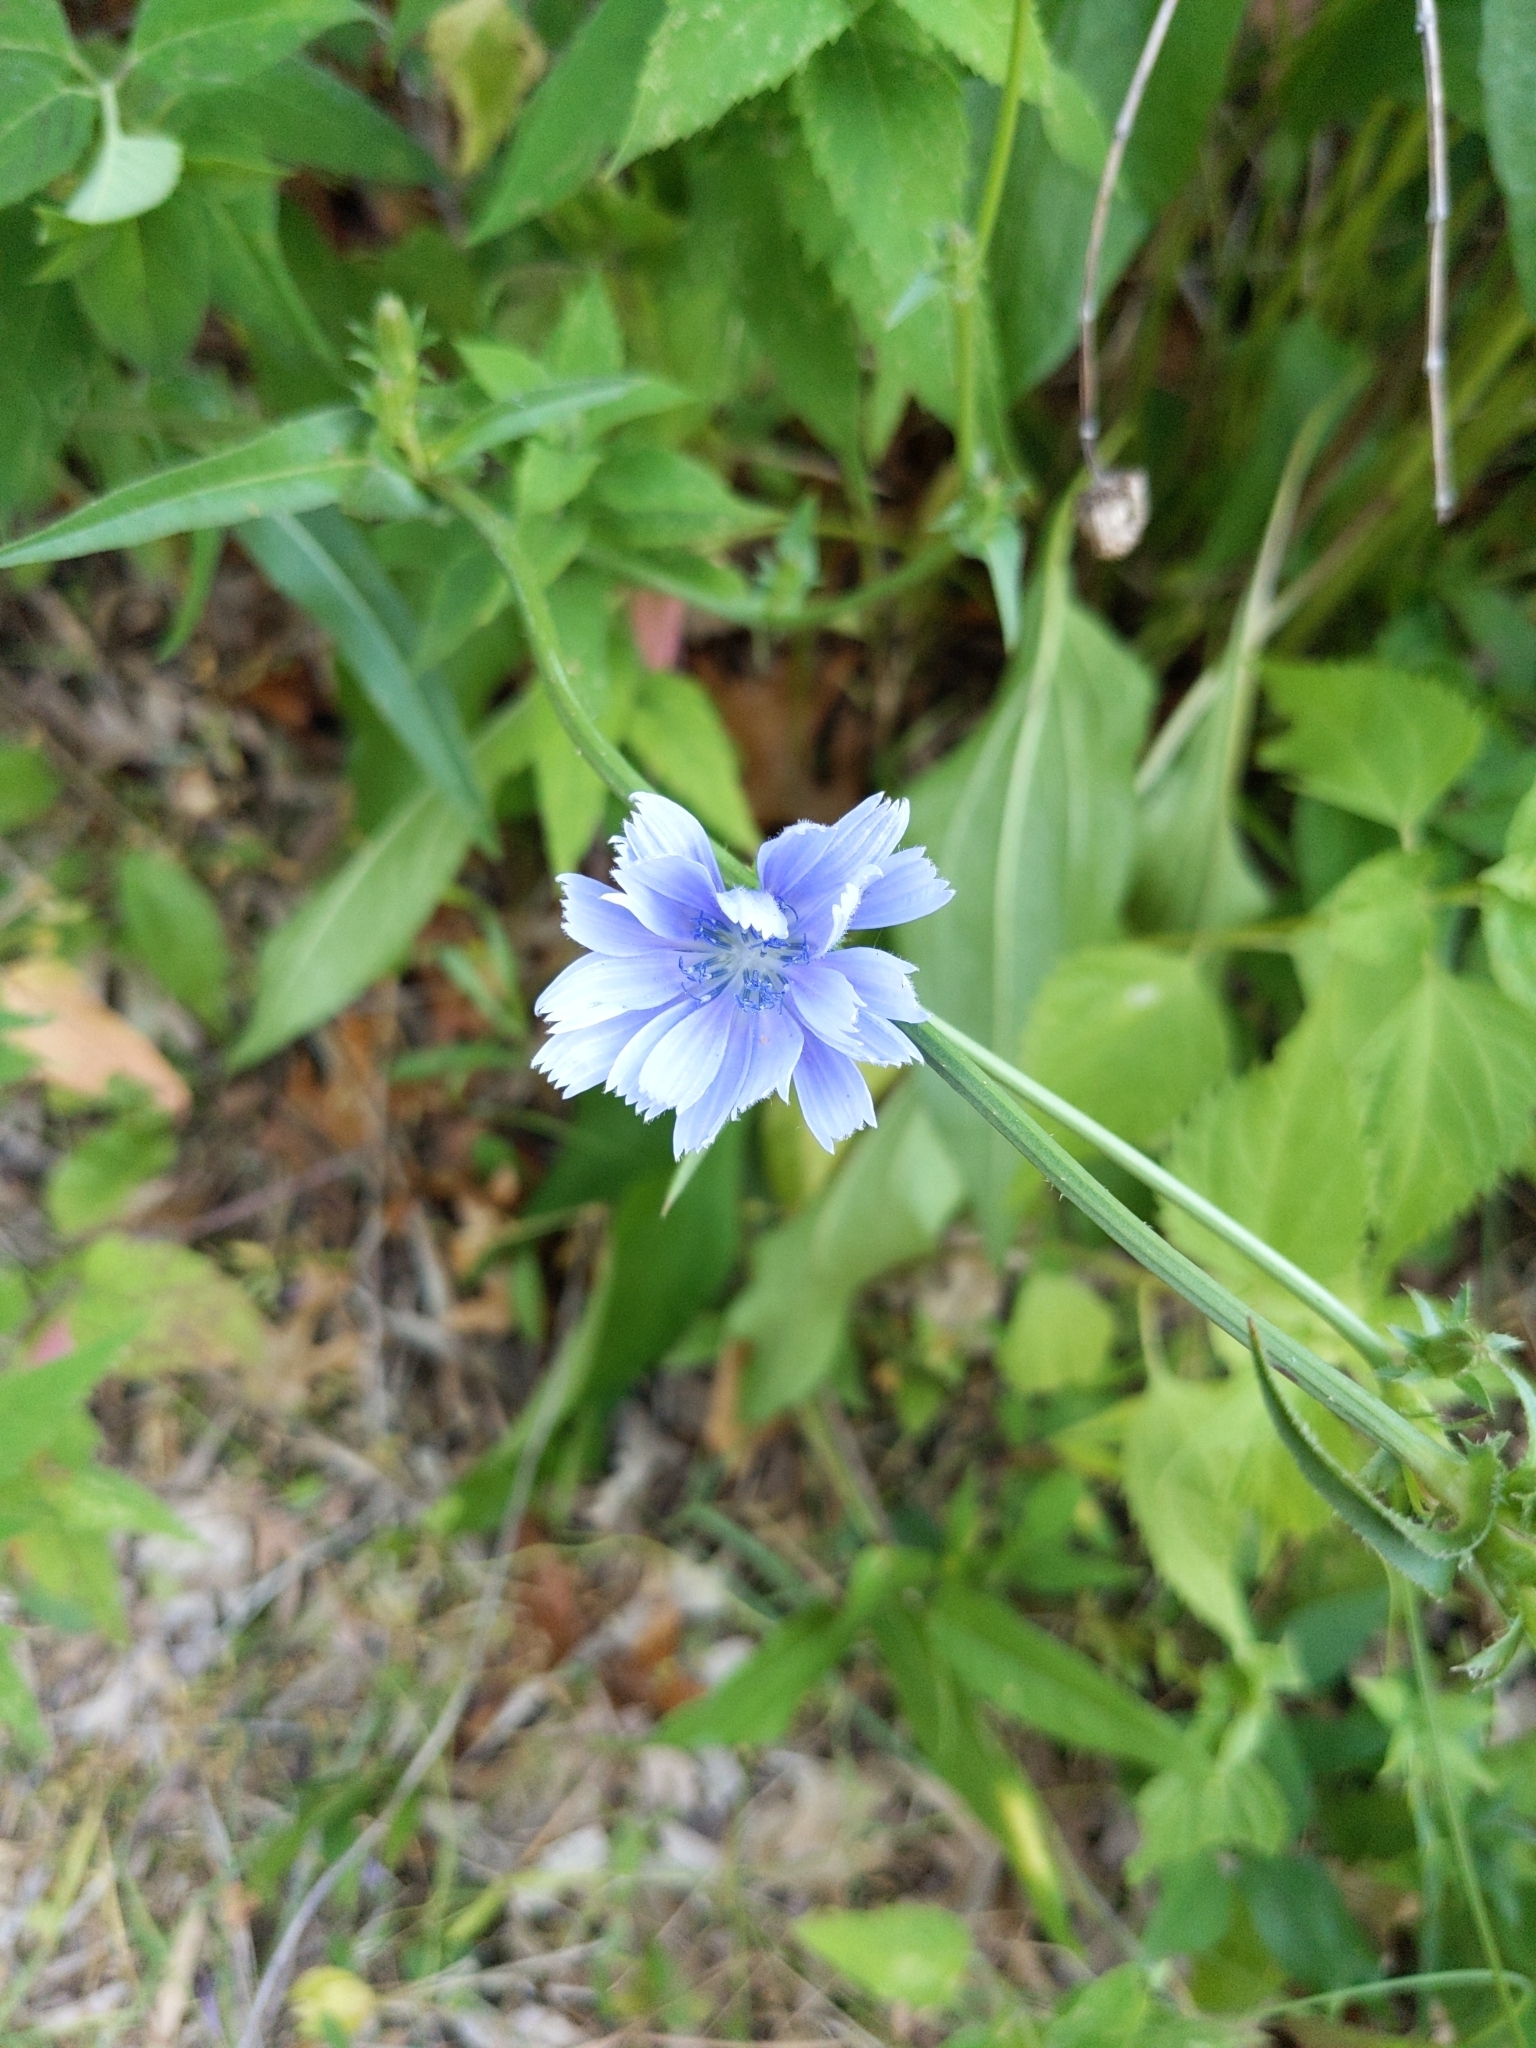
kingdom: Plantae
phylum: Tracheophyta
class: Magnoliopsida
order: Asterales
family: Asteraceae
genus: Cichorium
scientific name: Cichorium intybus
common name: Chicory
